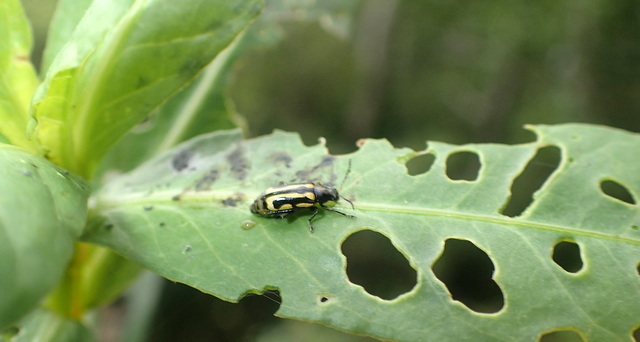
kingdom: Animalia
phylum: Arthropoda
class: Insecta
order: Coleoptera
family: Chrysomelidae
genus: Agasicles
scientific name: Agasicles hygrophila
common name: Alligatorweed flea beetle
